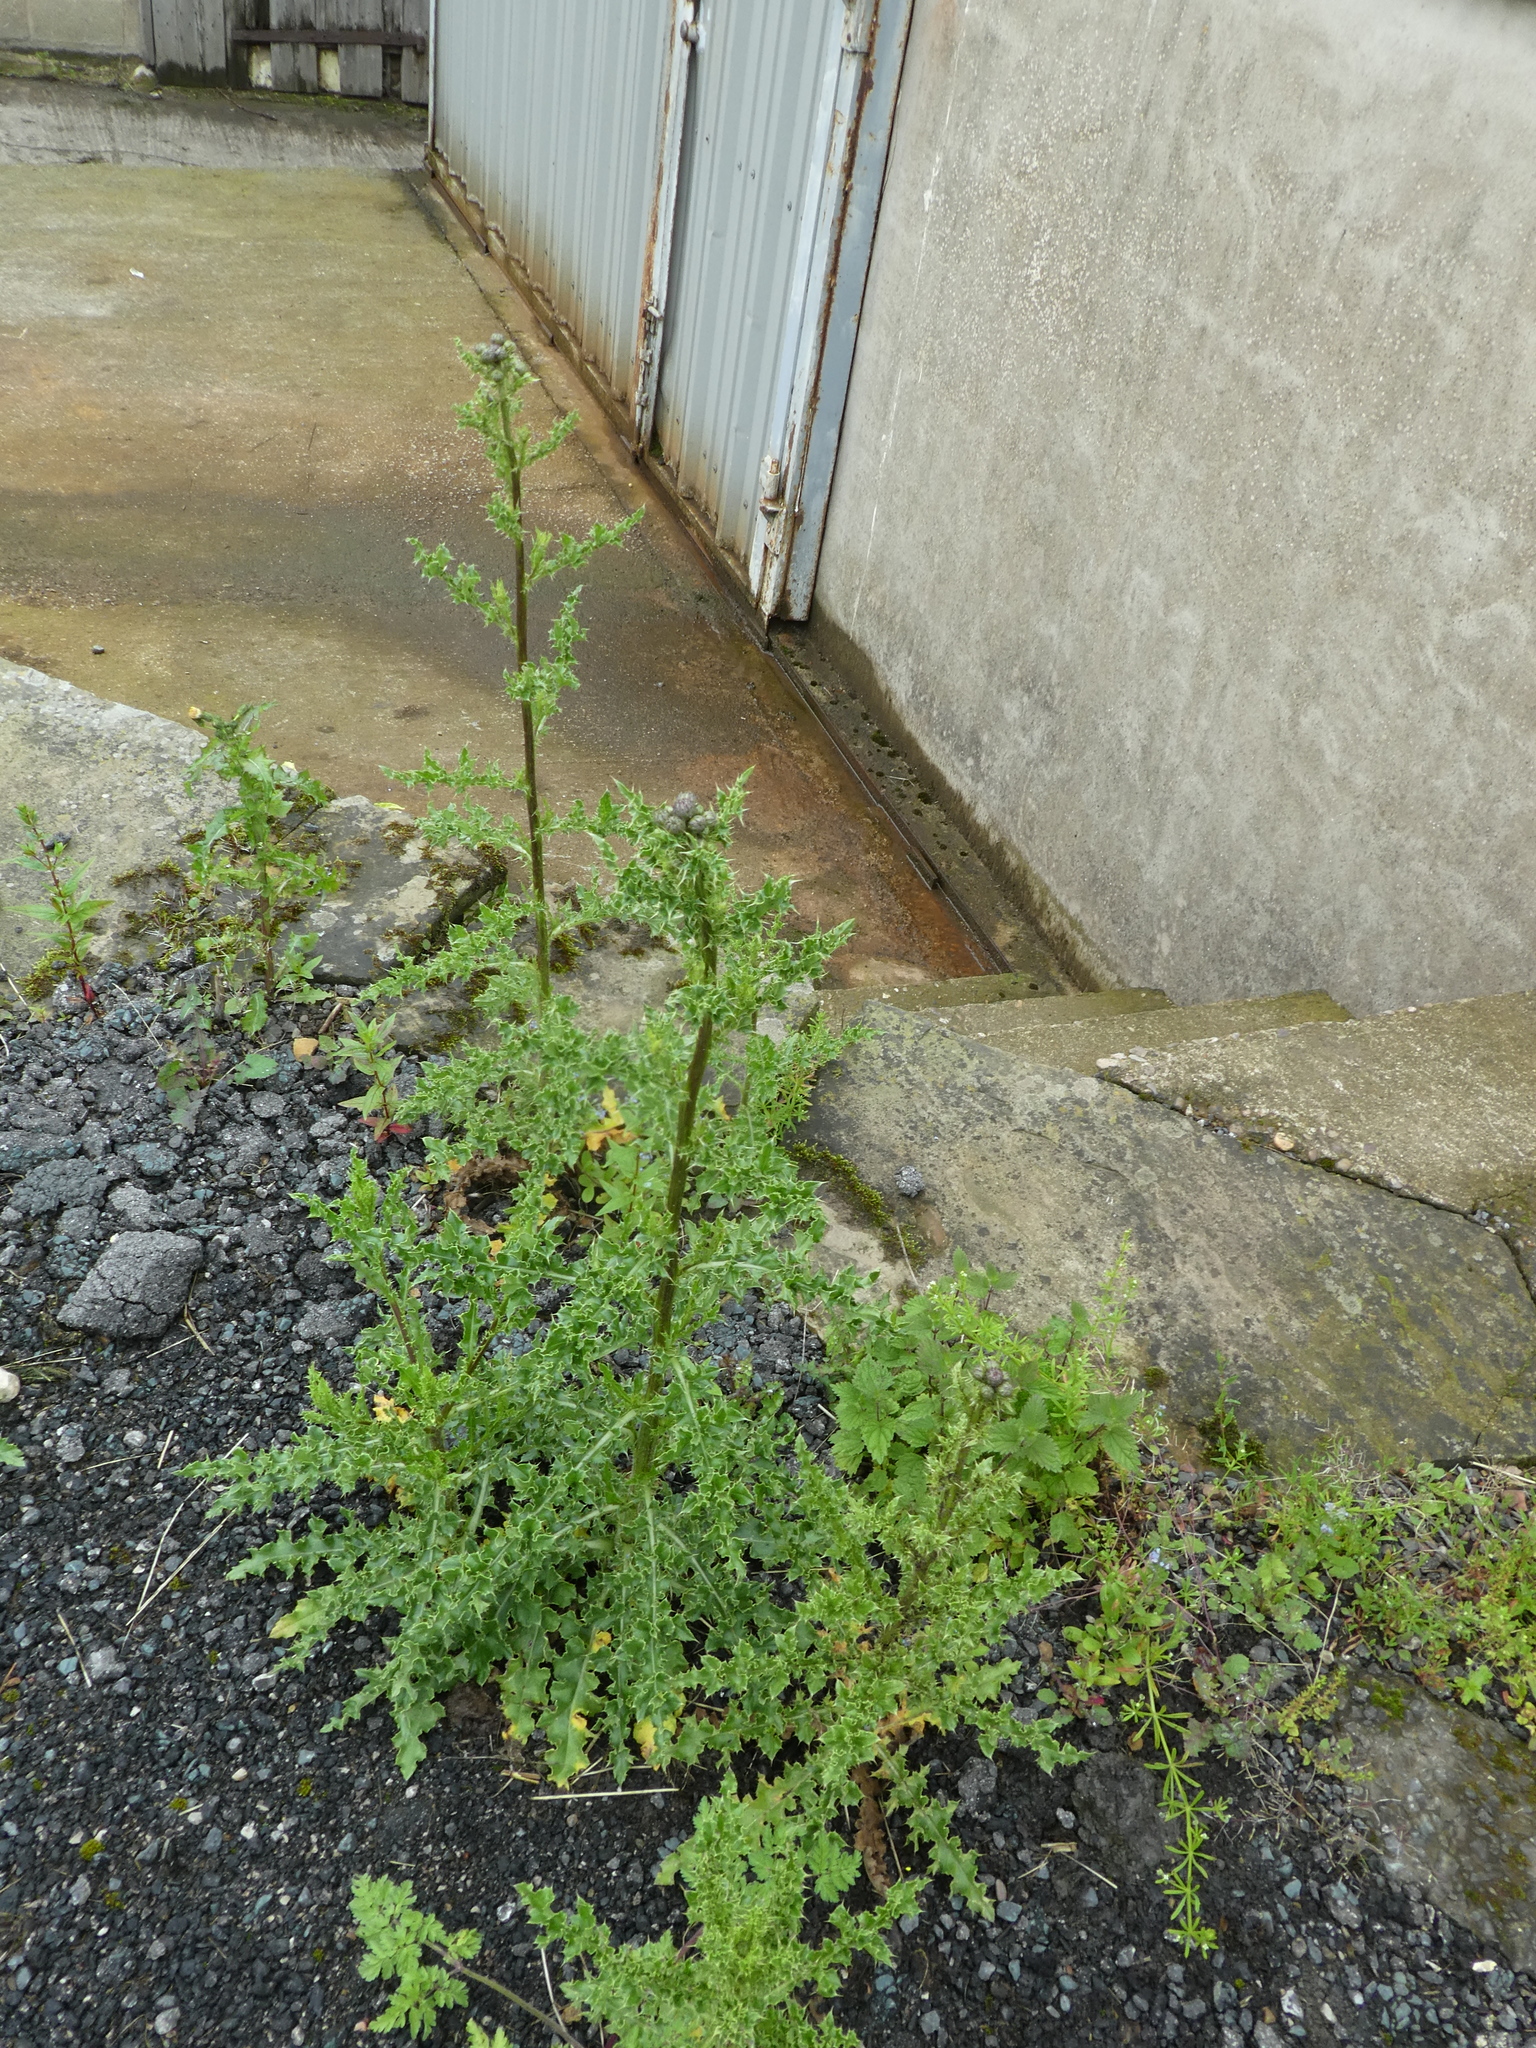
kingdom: Plantae
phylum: Tracheophyta
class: Magnoliopsida
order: Asterales
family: Asteraceae
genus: Cirsium
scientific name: Cirsium arvense
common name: Creeping thistle
